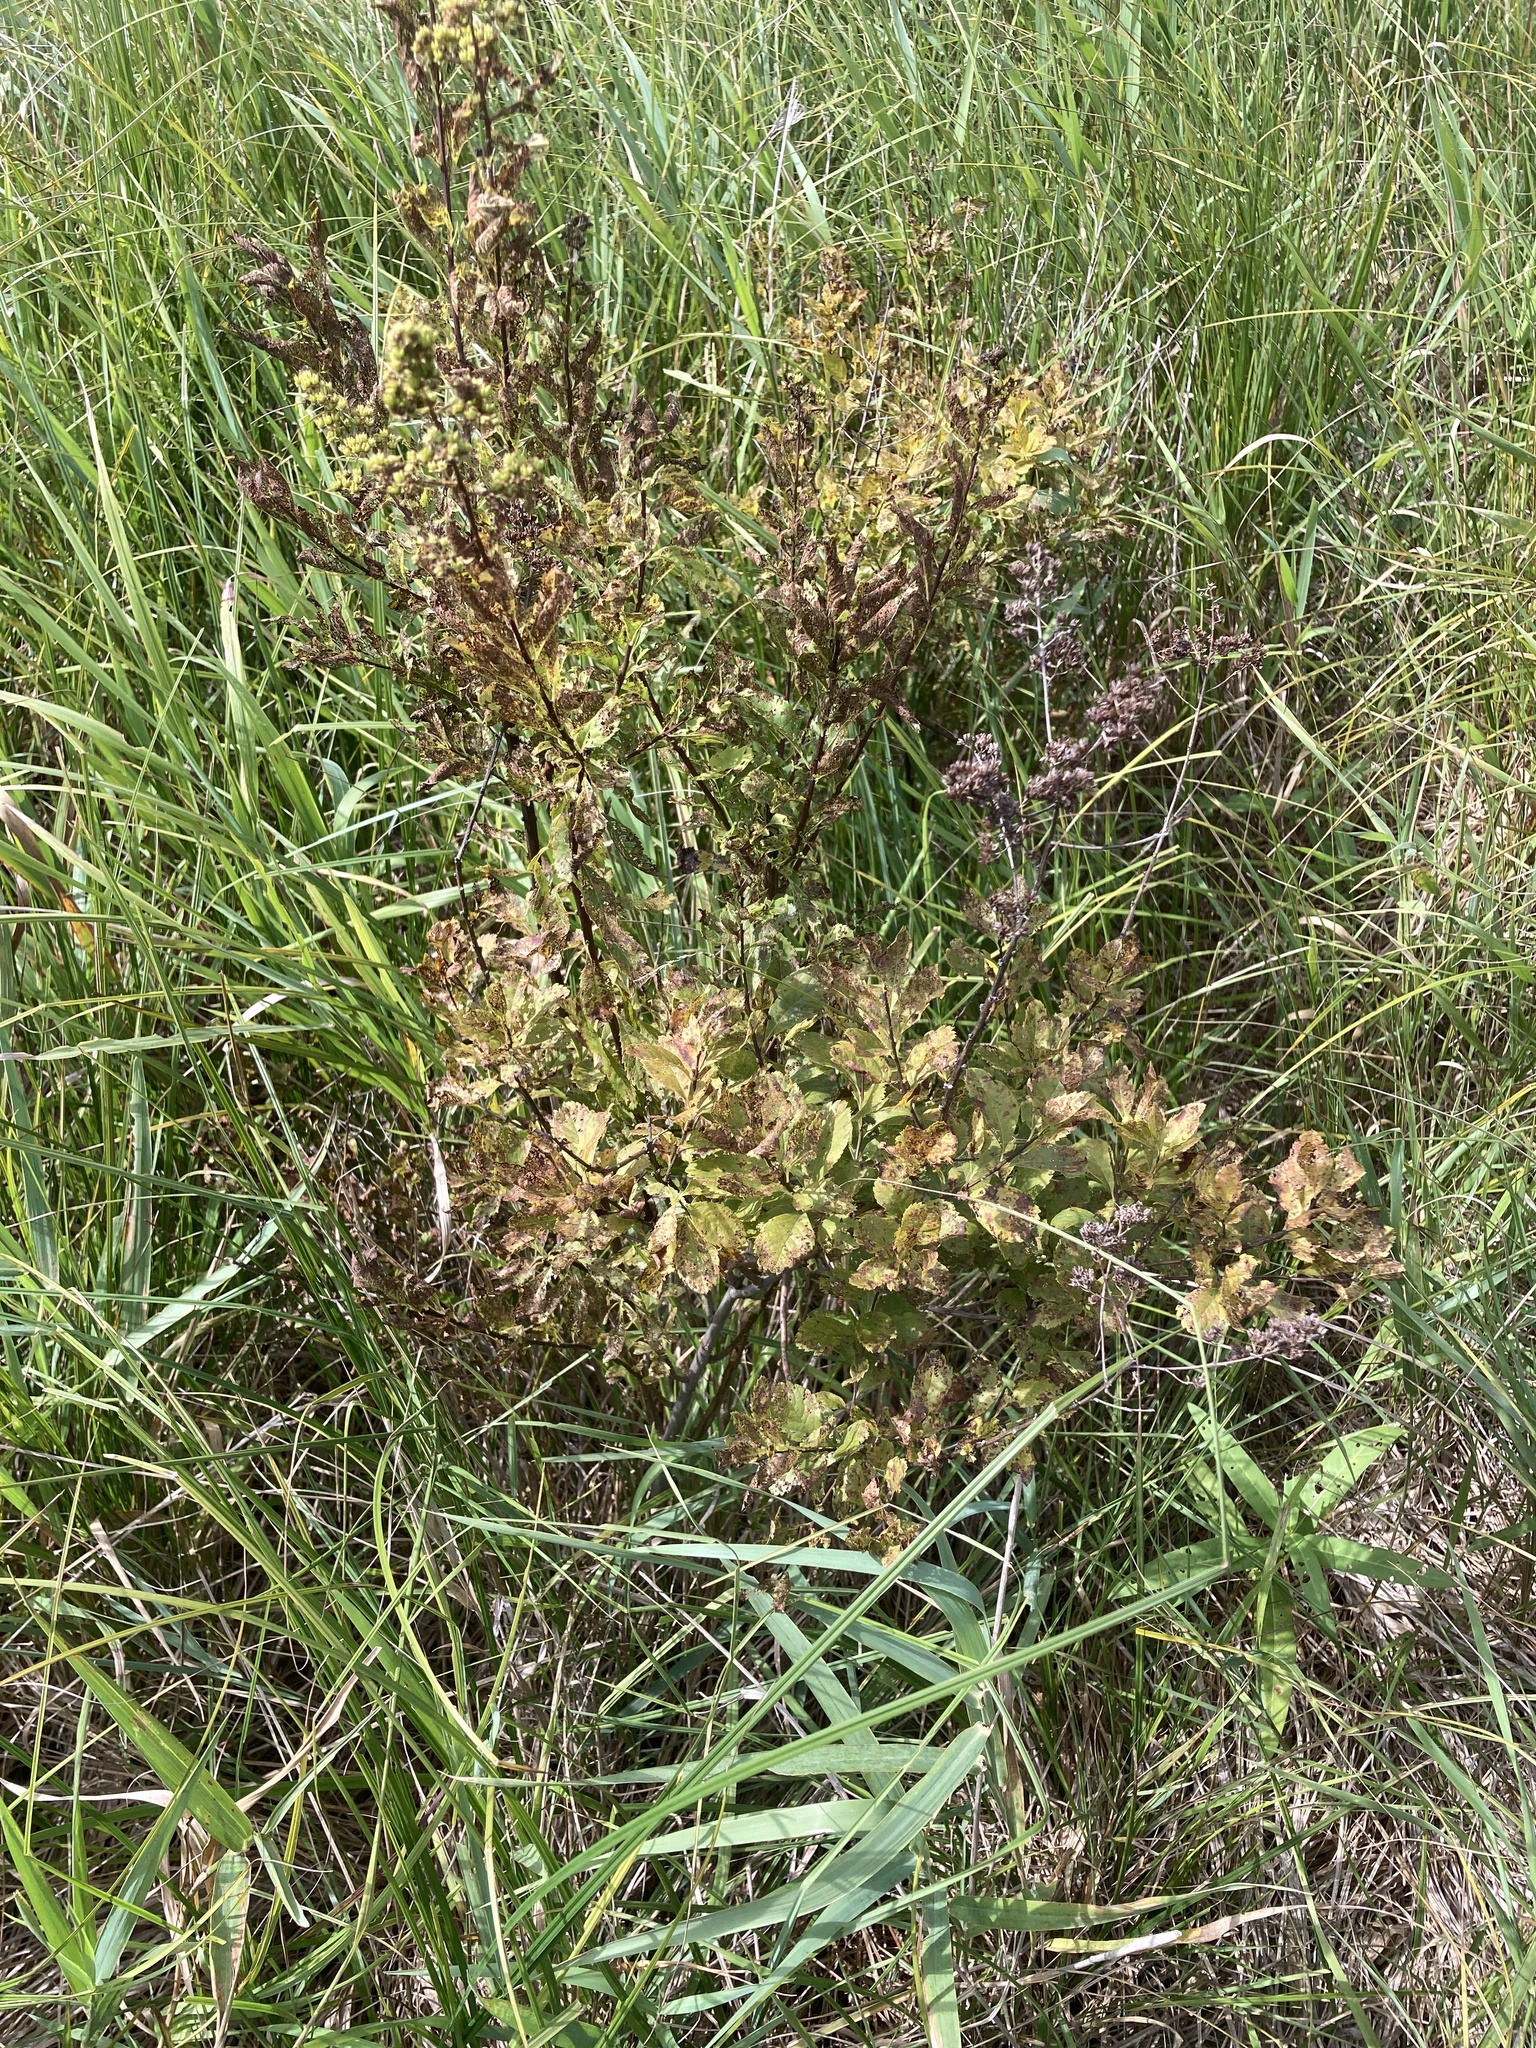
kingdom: Plantae
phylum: Tracheophyta
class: Magnoliopsida
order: Rosales
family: Rosaceae
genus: Spiraea
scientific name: Spiraea alba
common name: Pale bridewort
